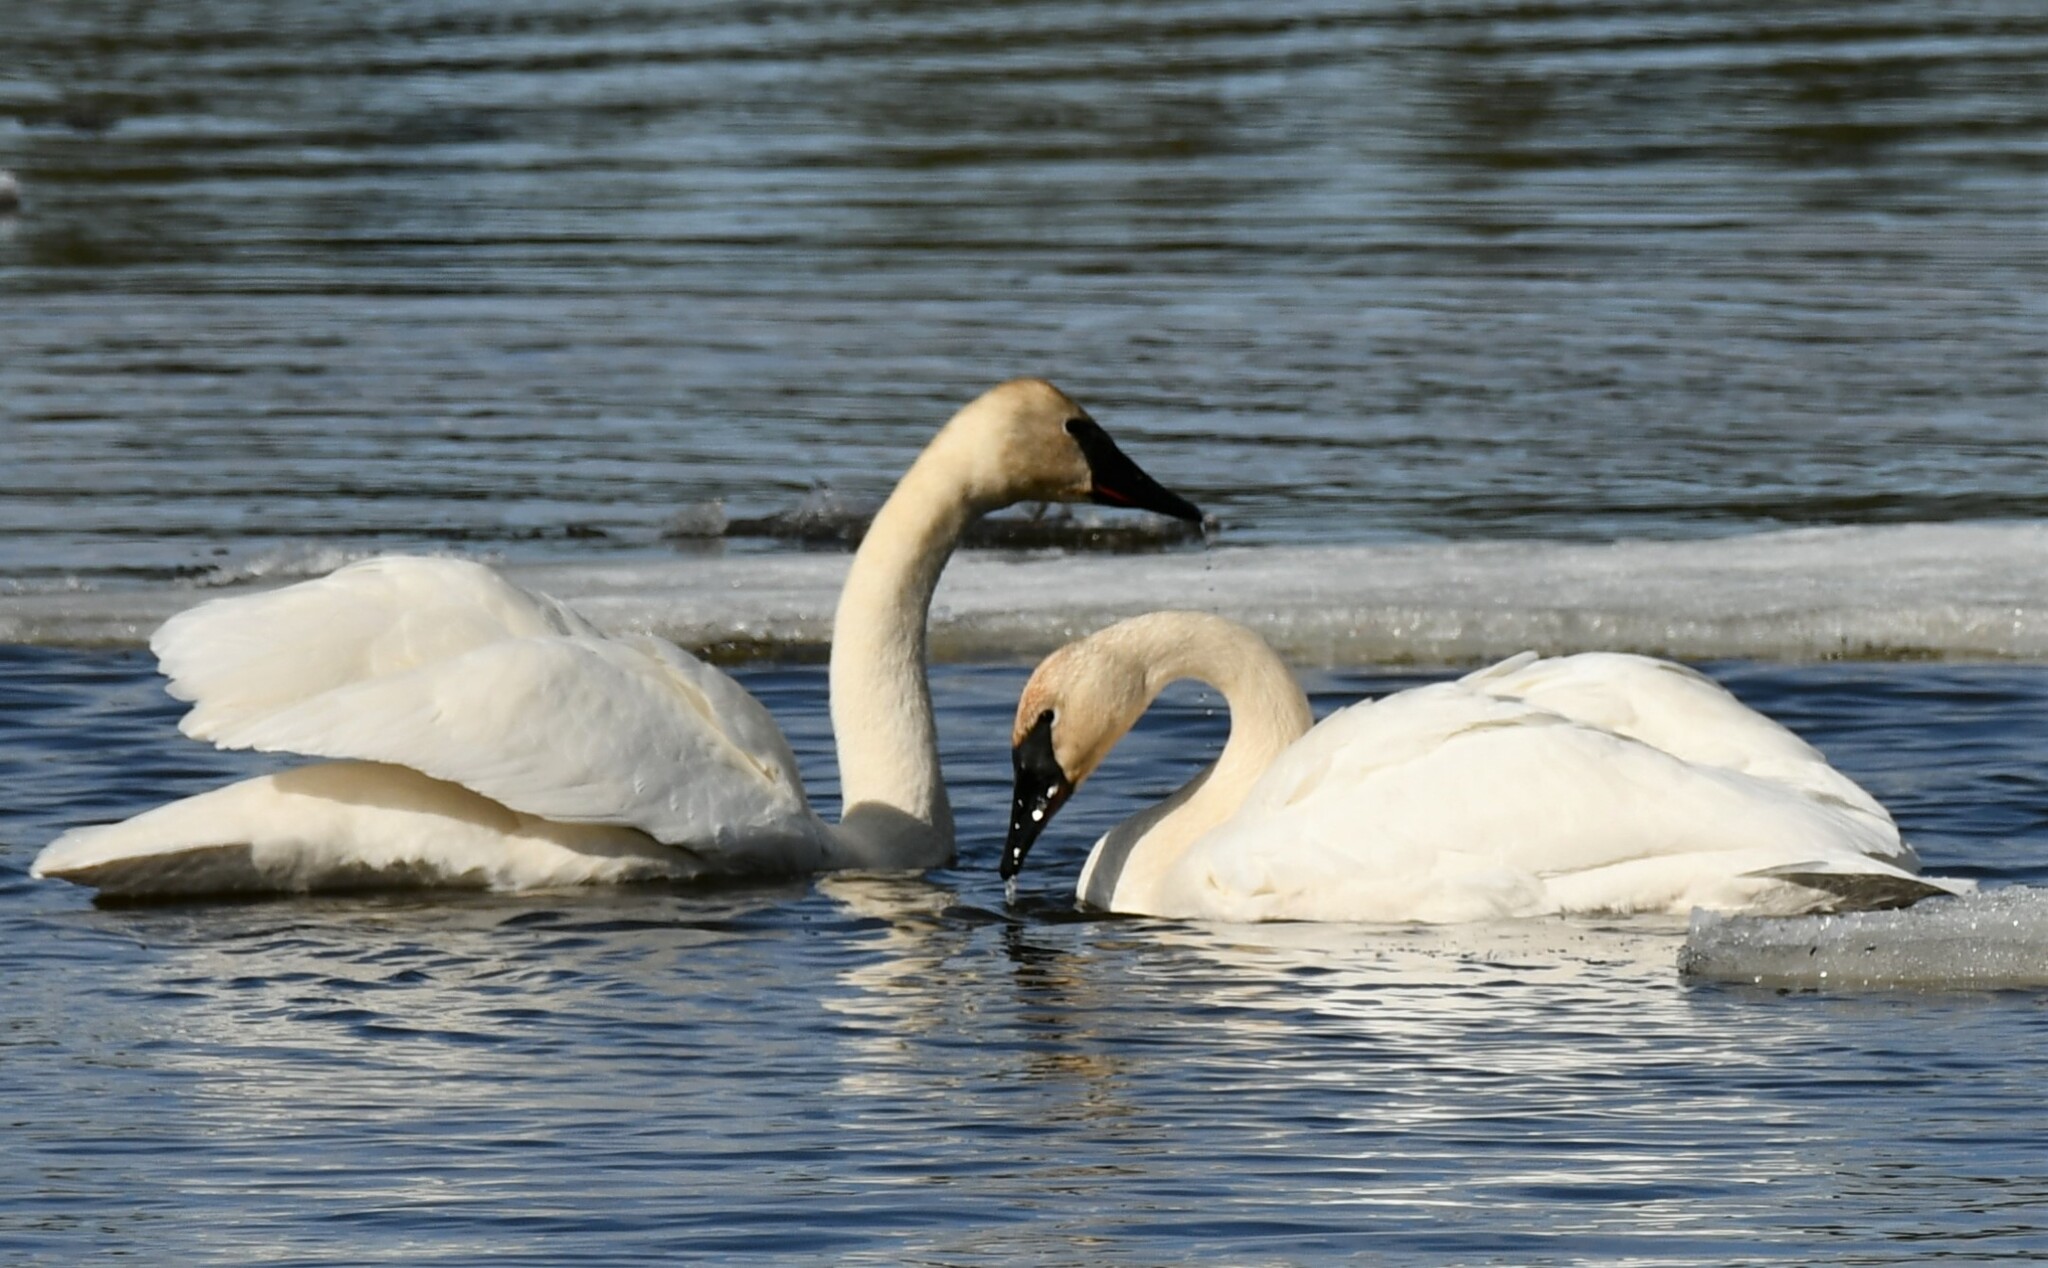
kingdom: Animalia
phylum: Chordata
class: Aves
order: Anseriformes
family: Anatidae
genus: Cygnus
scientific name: Cygnus buccinator
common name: Trumpeter swan
